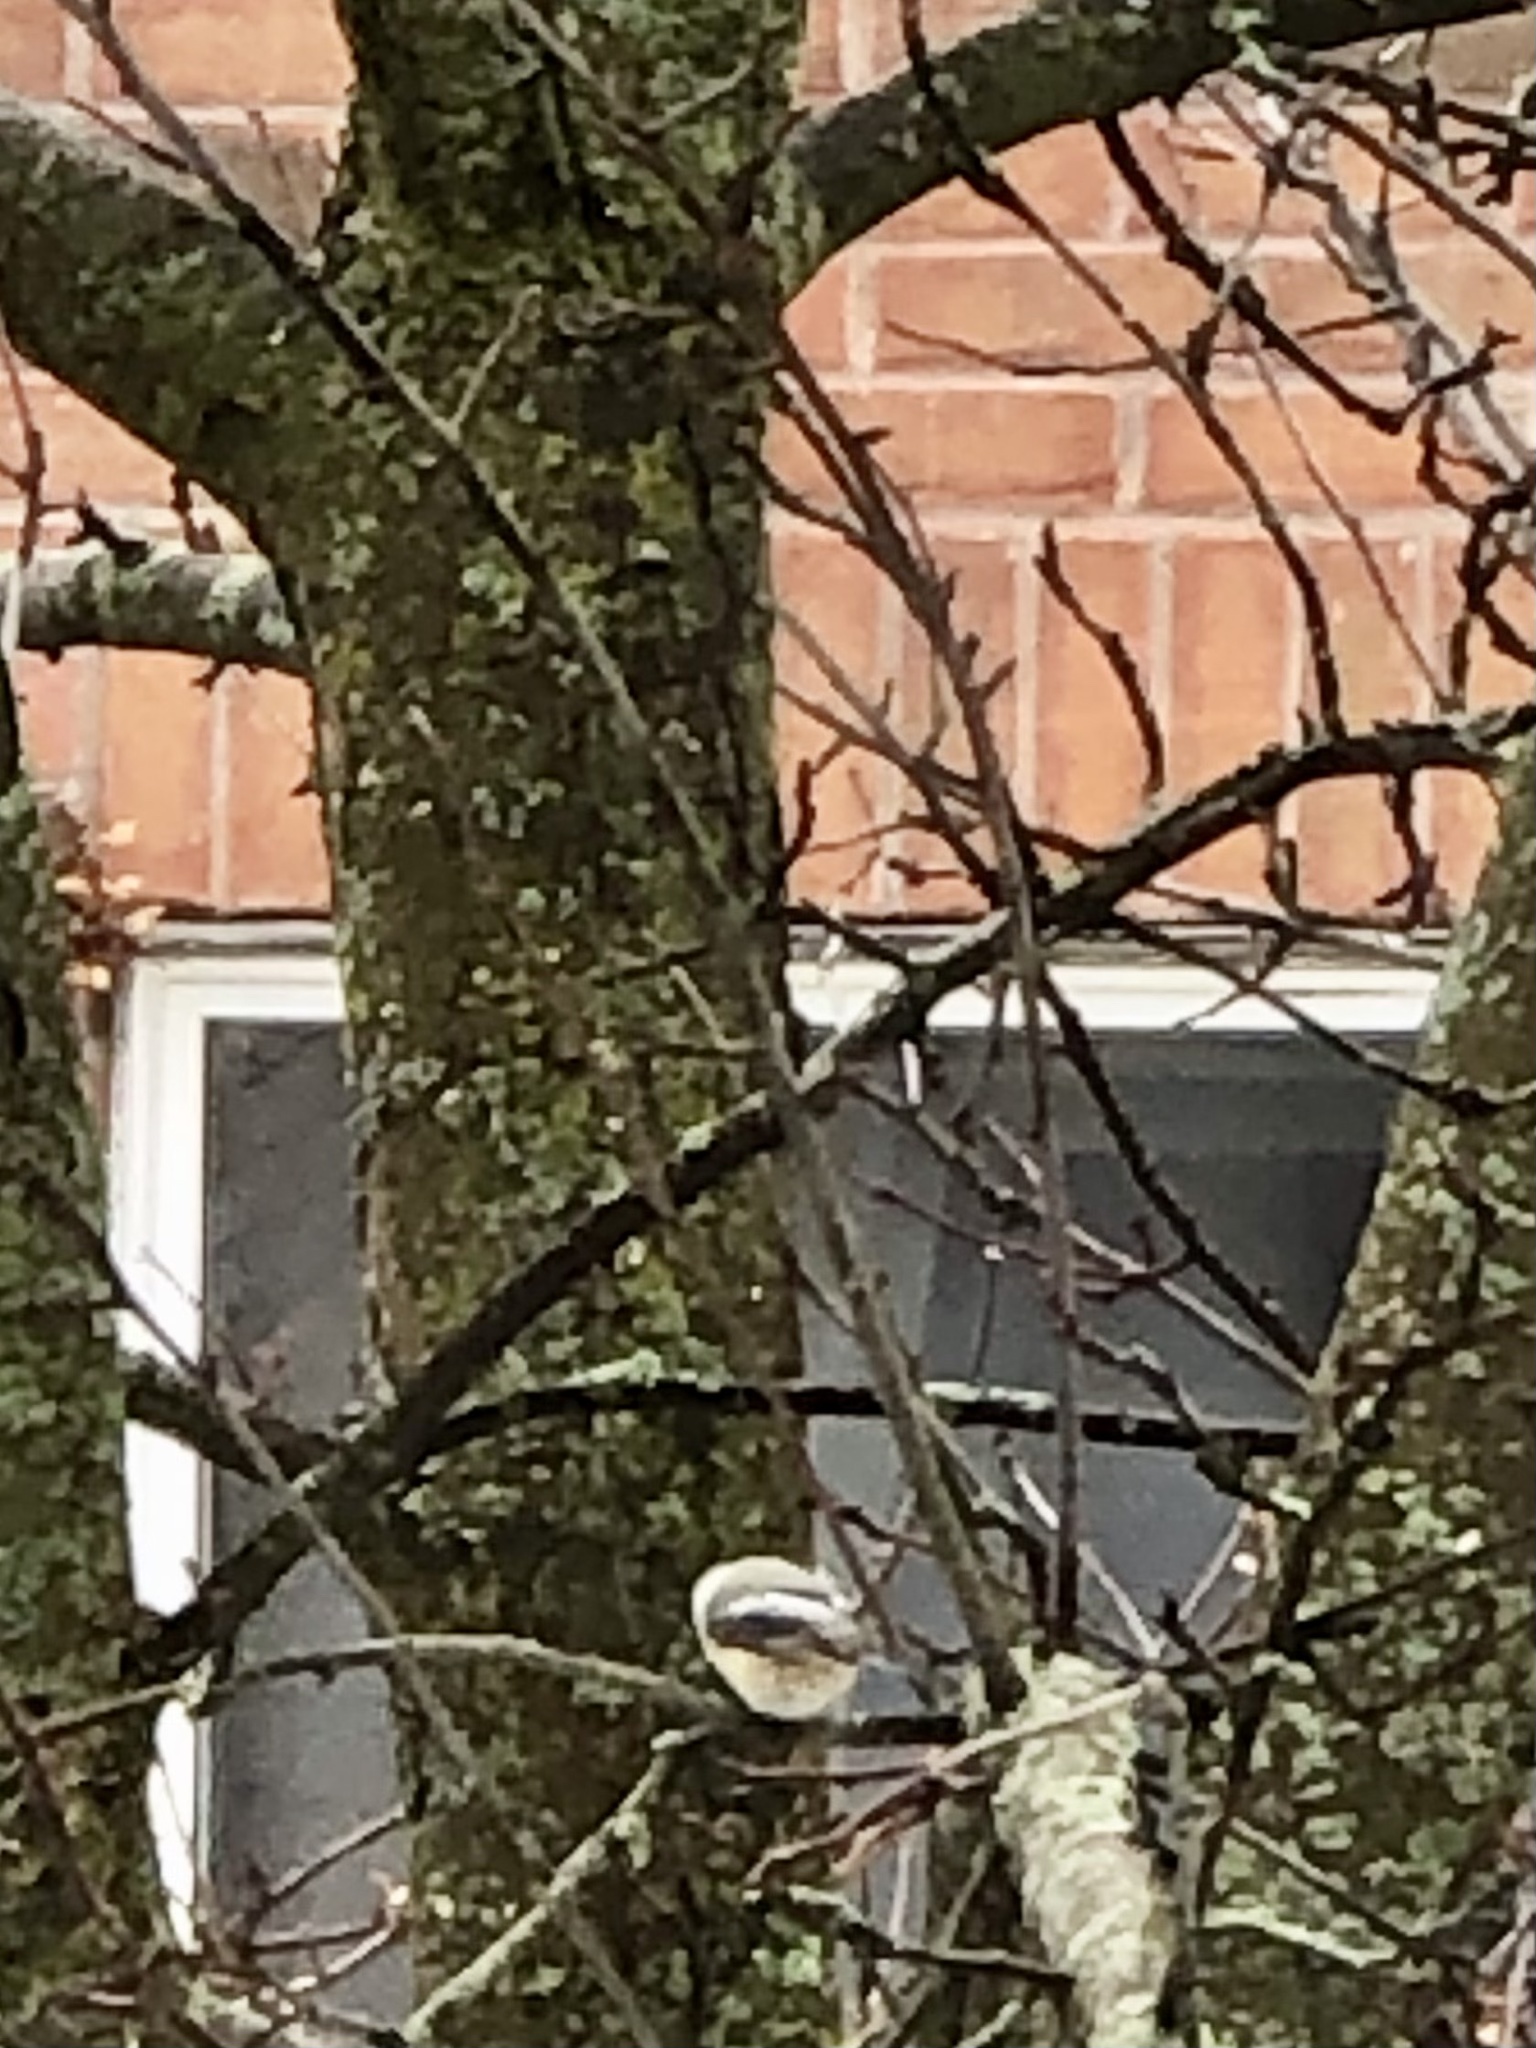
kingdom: Animalia
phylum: Chordata
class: Aves
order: Passeriformes
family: Paridae
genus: Poecile
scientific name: Poecile atricapillus
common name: Black-capped chickadee
